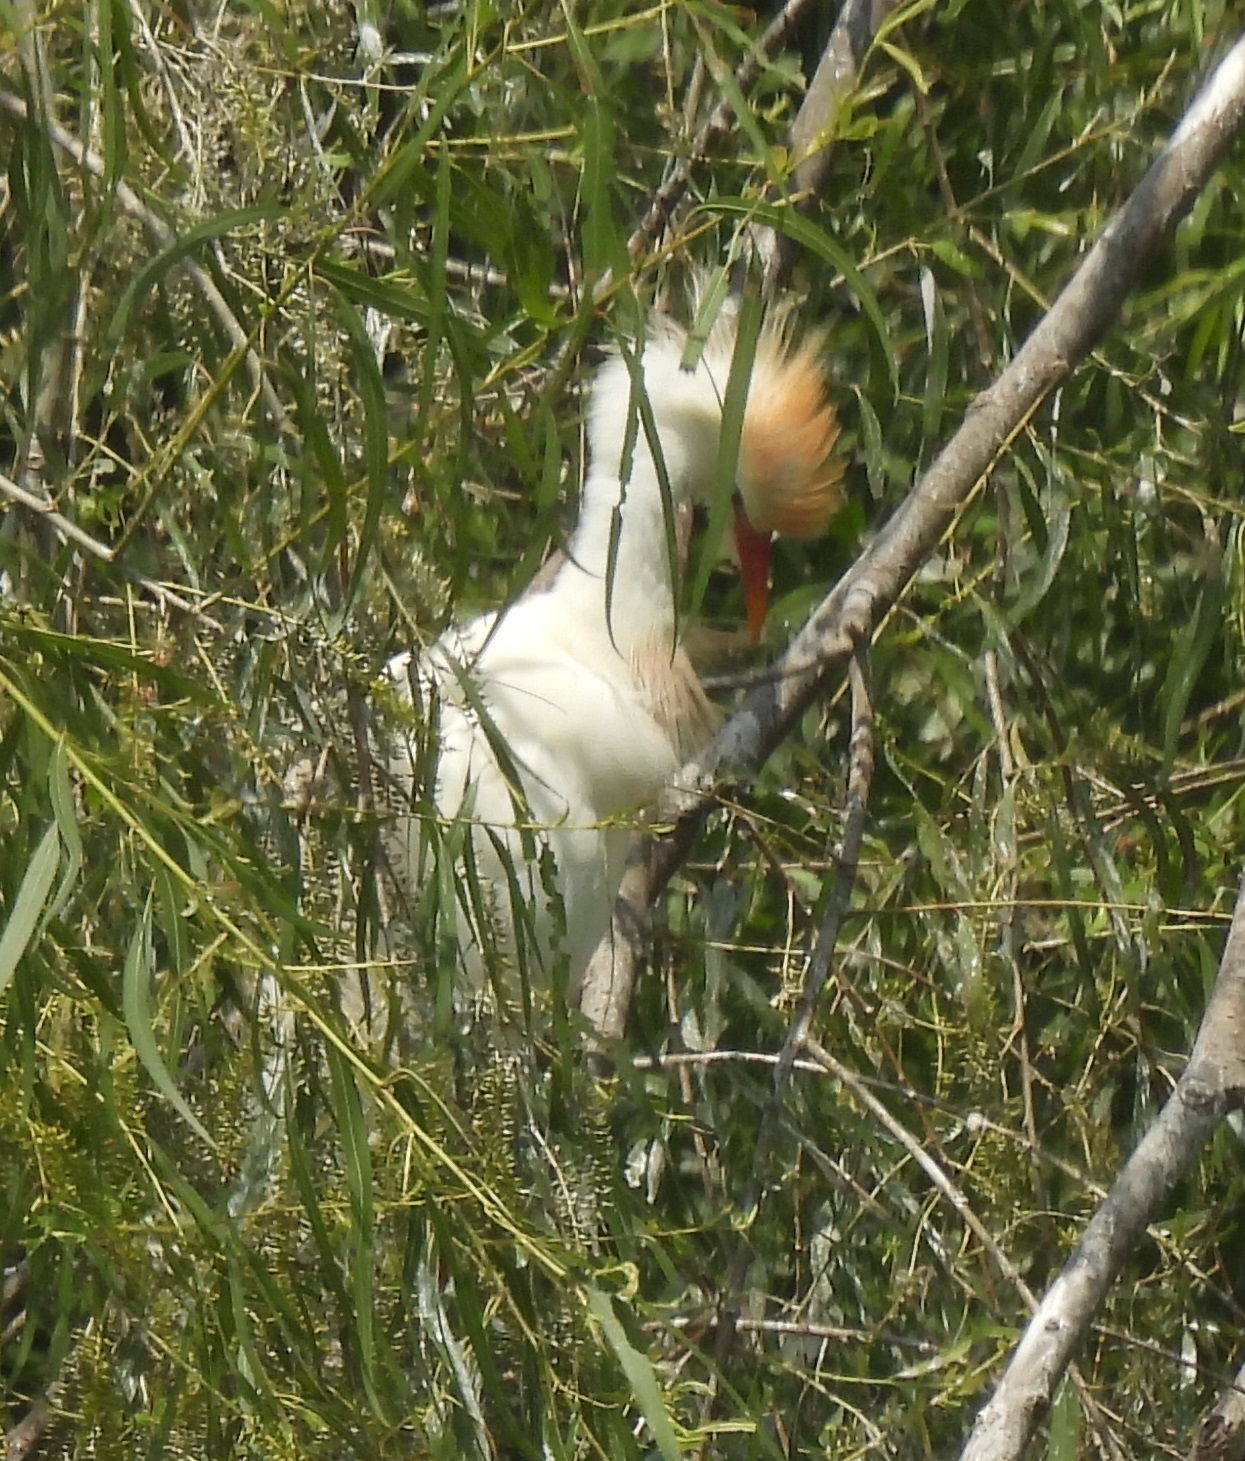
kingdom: Animalia
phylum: Chordata
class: Aves
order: Pelecaniformes
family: Ardeidae
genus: Bubulcus
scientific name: Bubulcus ibis
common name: Cattle egret
